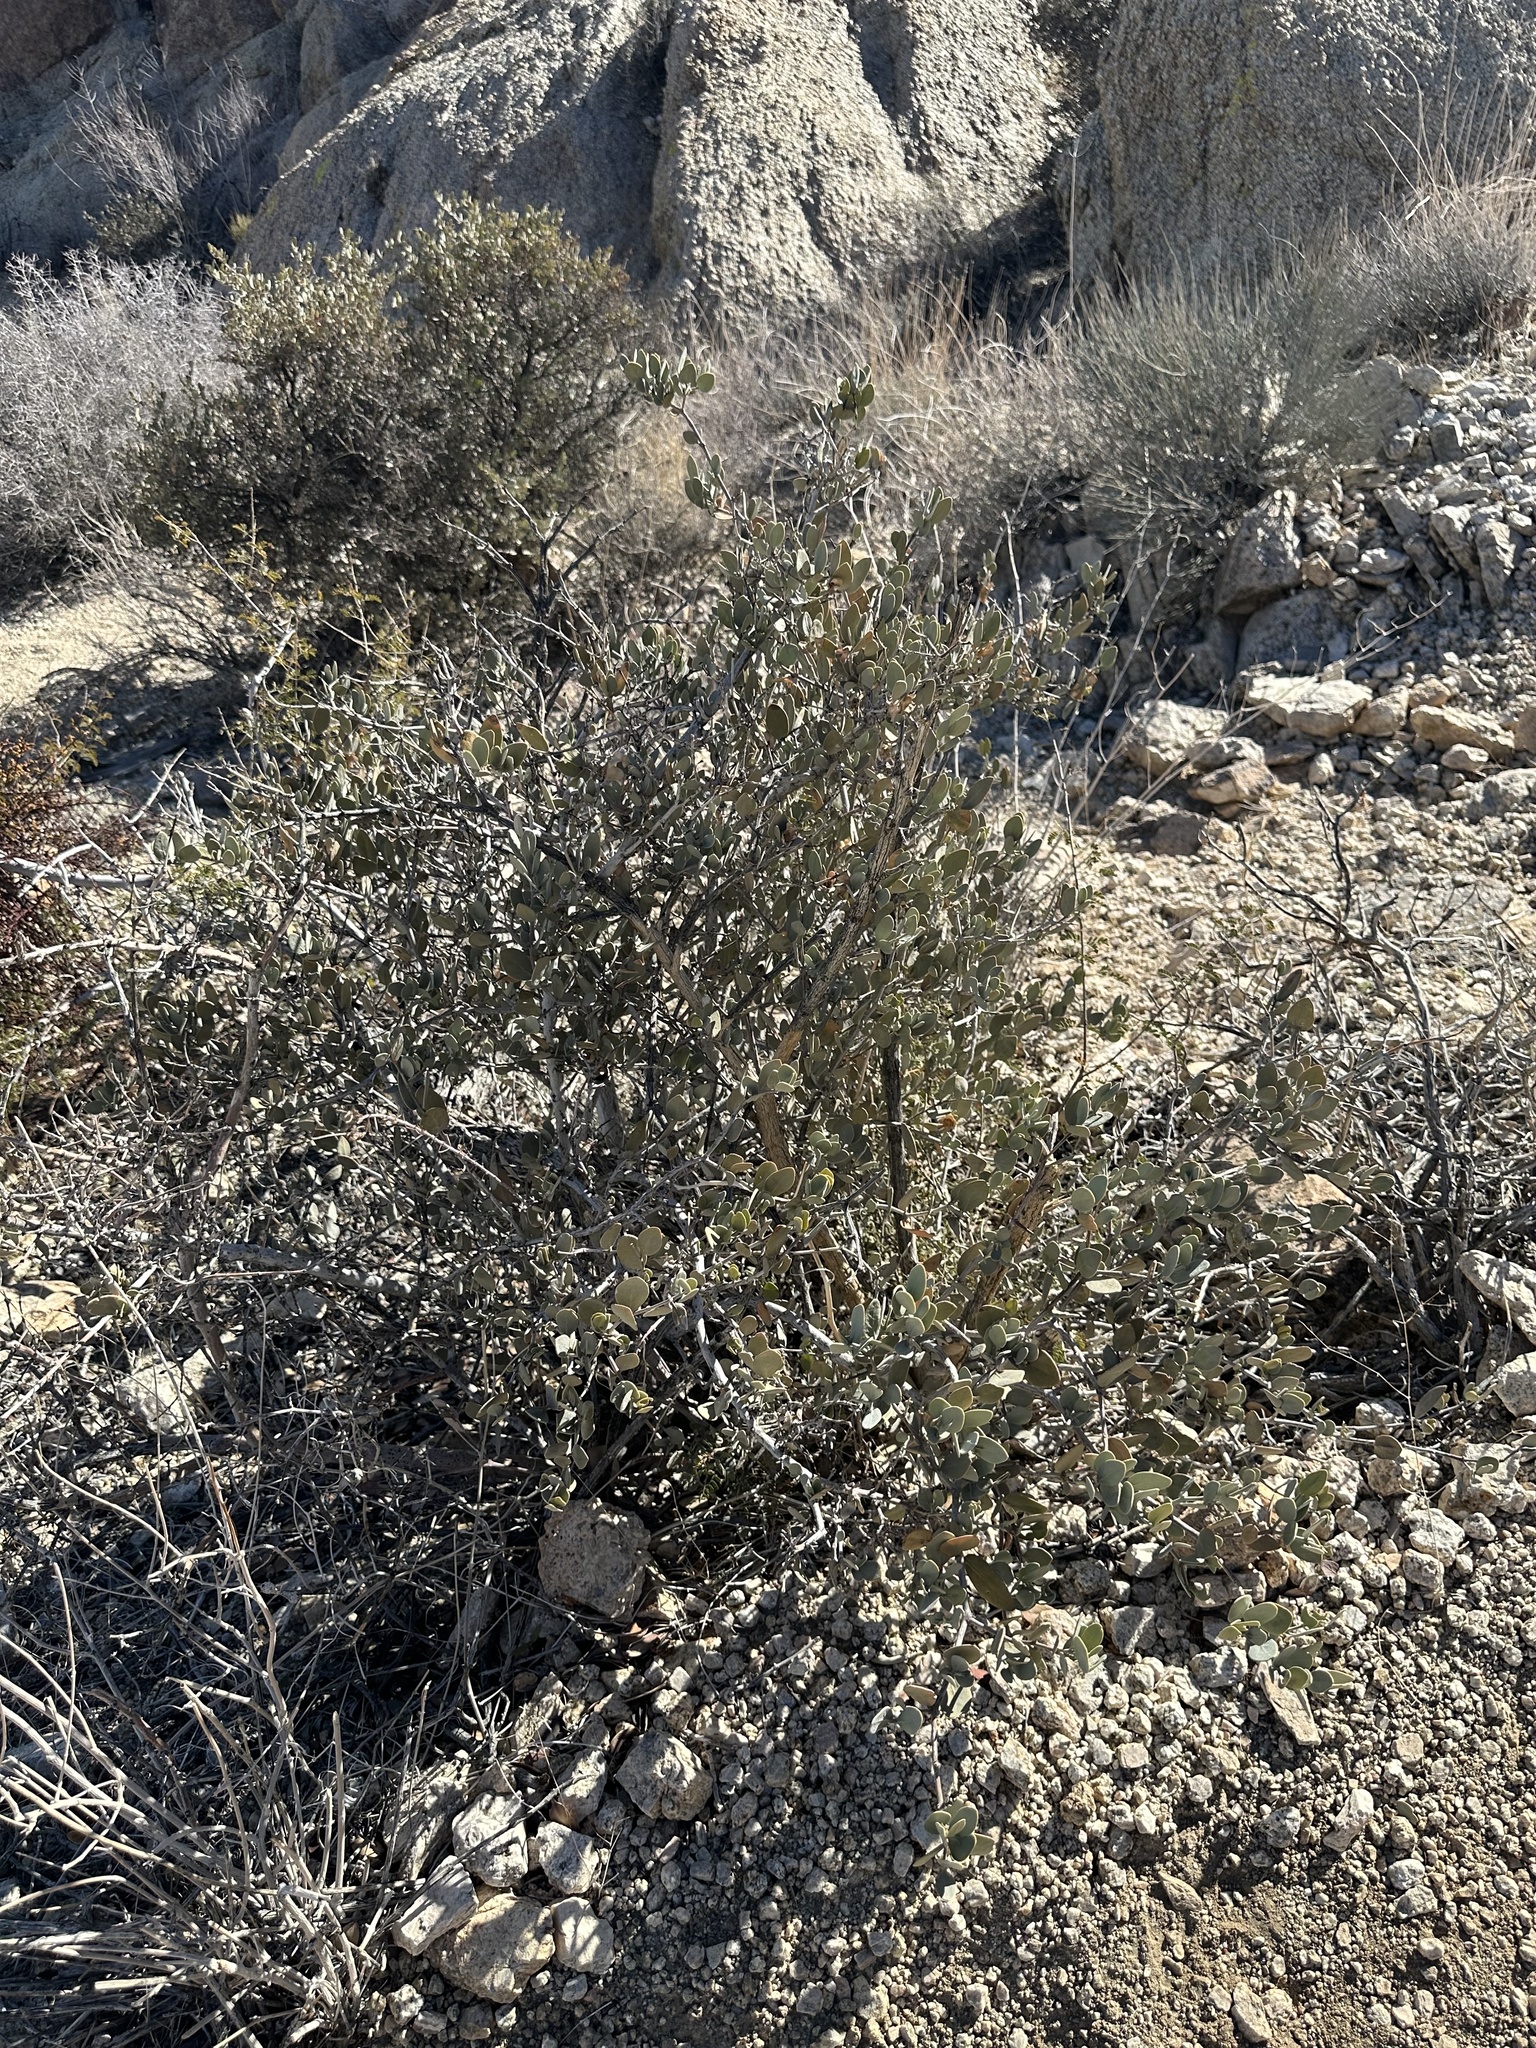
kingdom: Plantae
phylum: Tracheophyta
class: Magnoliopsida
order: Caryophyllales
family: Simmondsiaceae
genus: Simmondsia
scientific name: Simmondsia chinensis
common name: Jojoba
